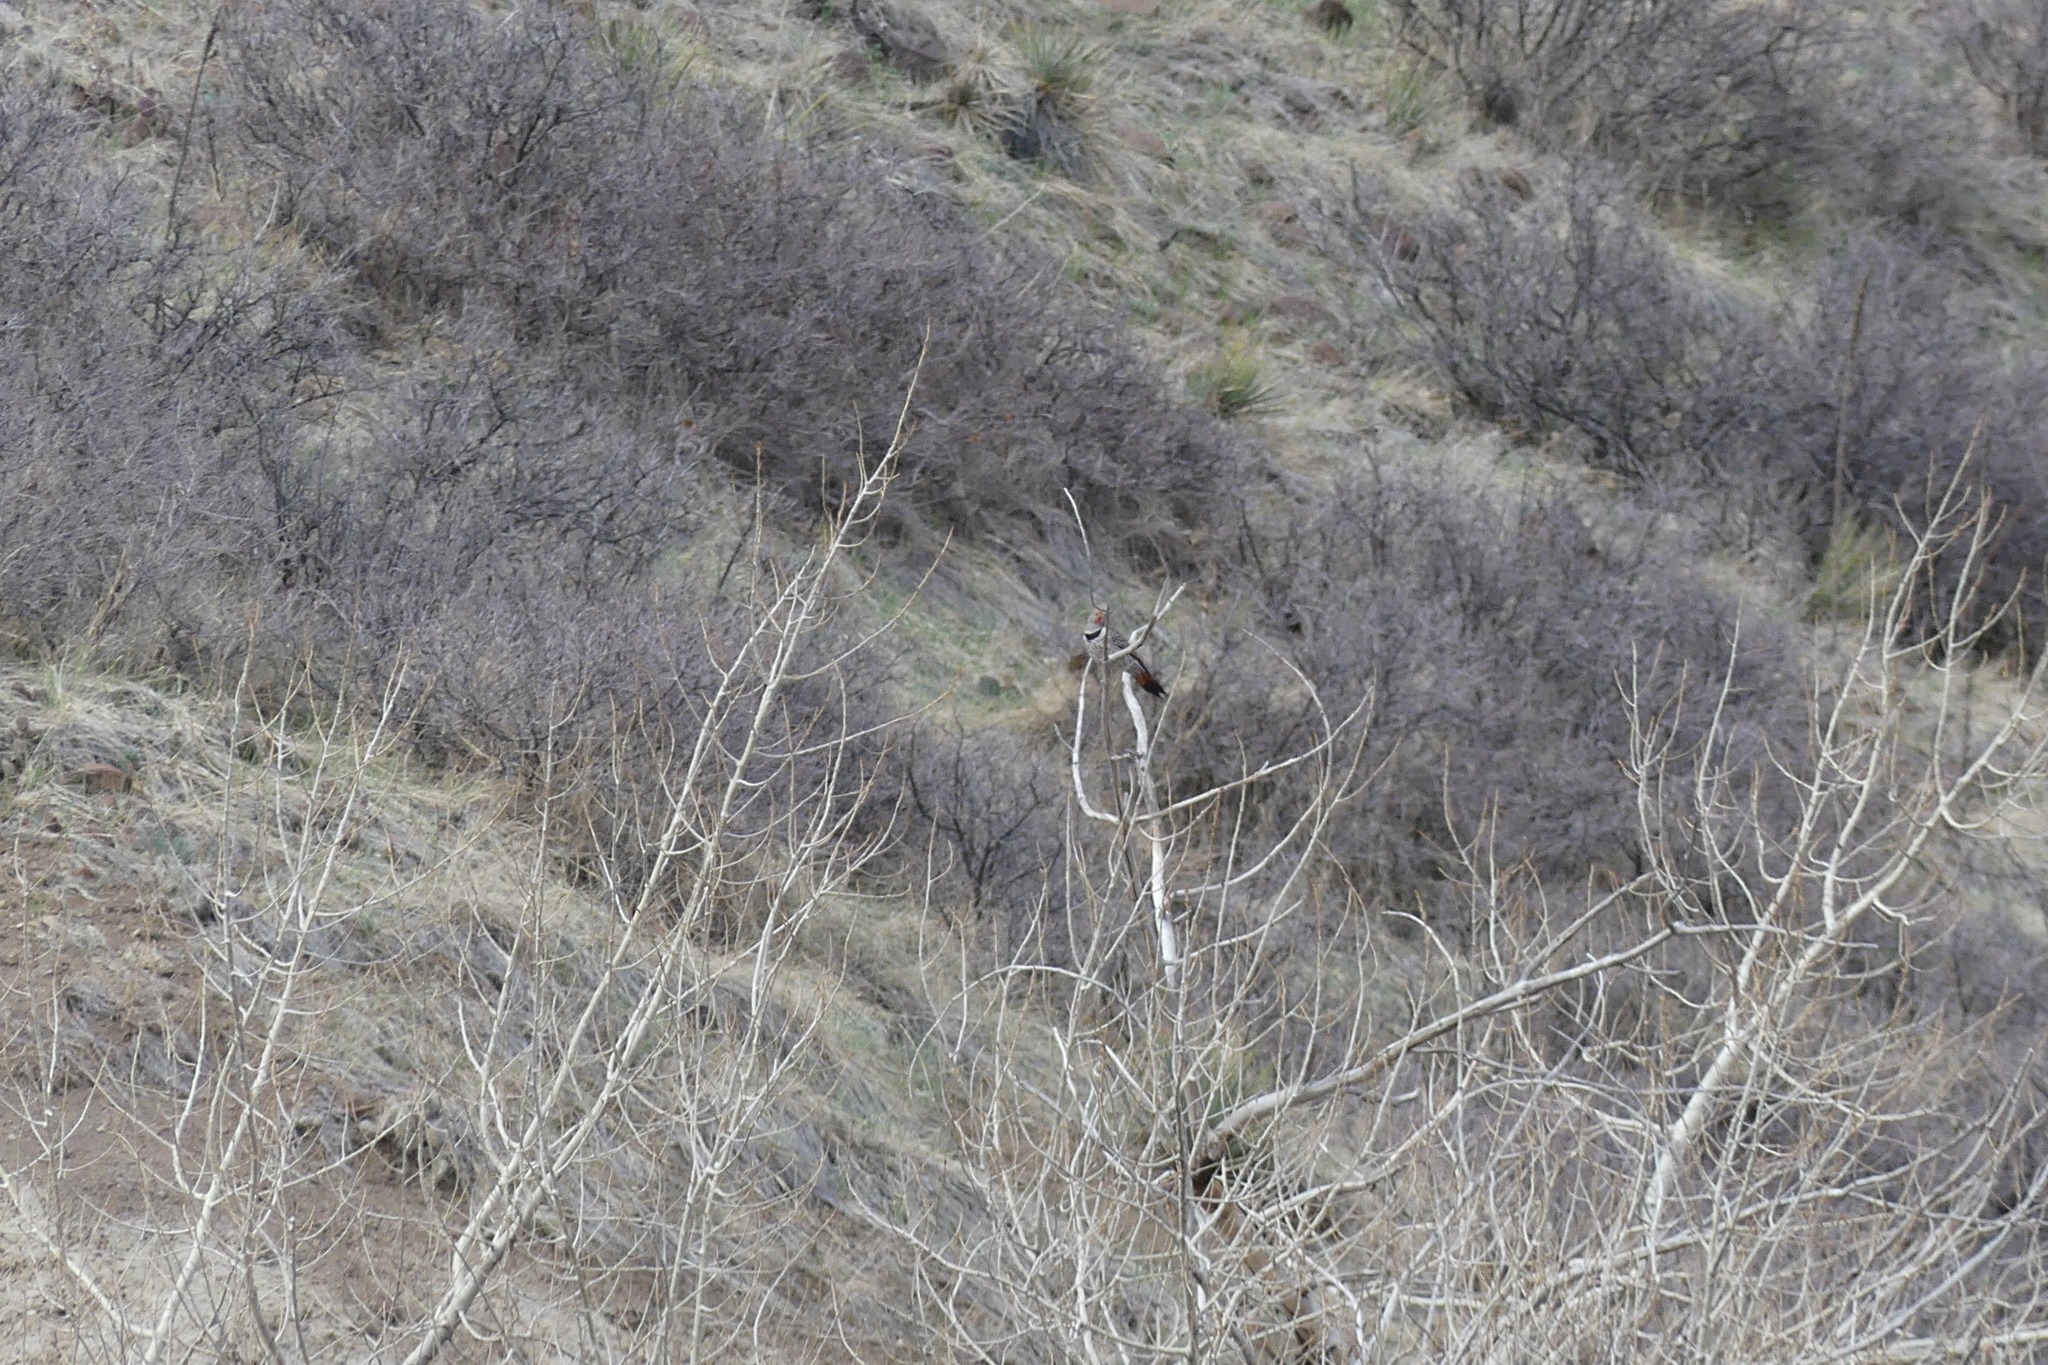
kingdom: Animalia
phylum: Chordata
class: Aves
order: Piciformes
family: Picidae
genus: Colaptes
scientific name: Colaptes auratus
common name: Northern flicker
